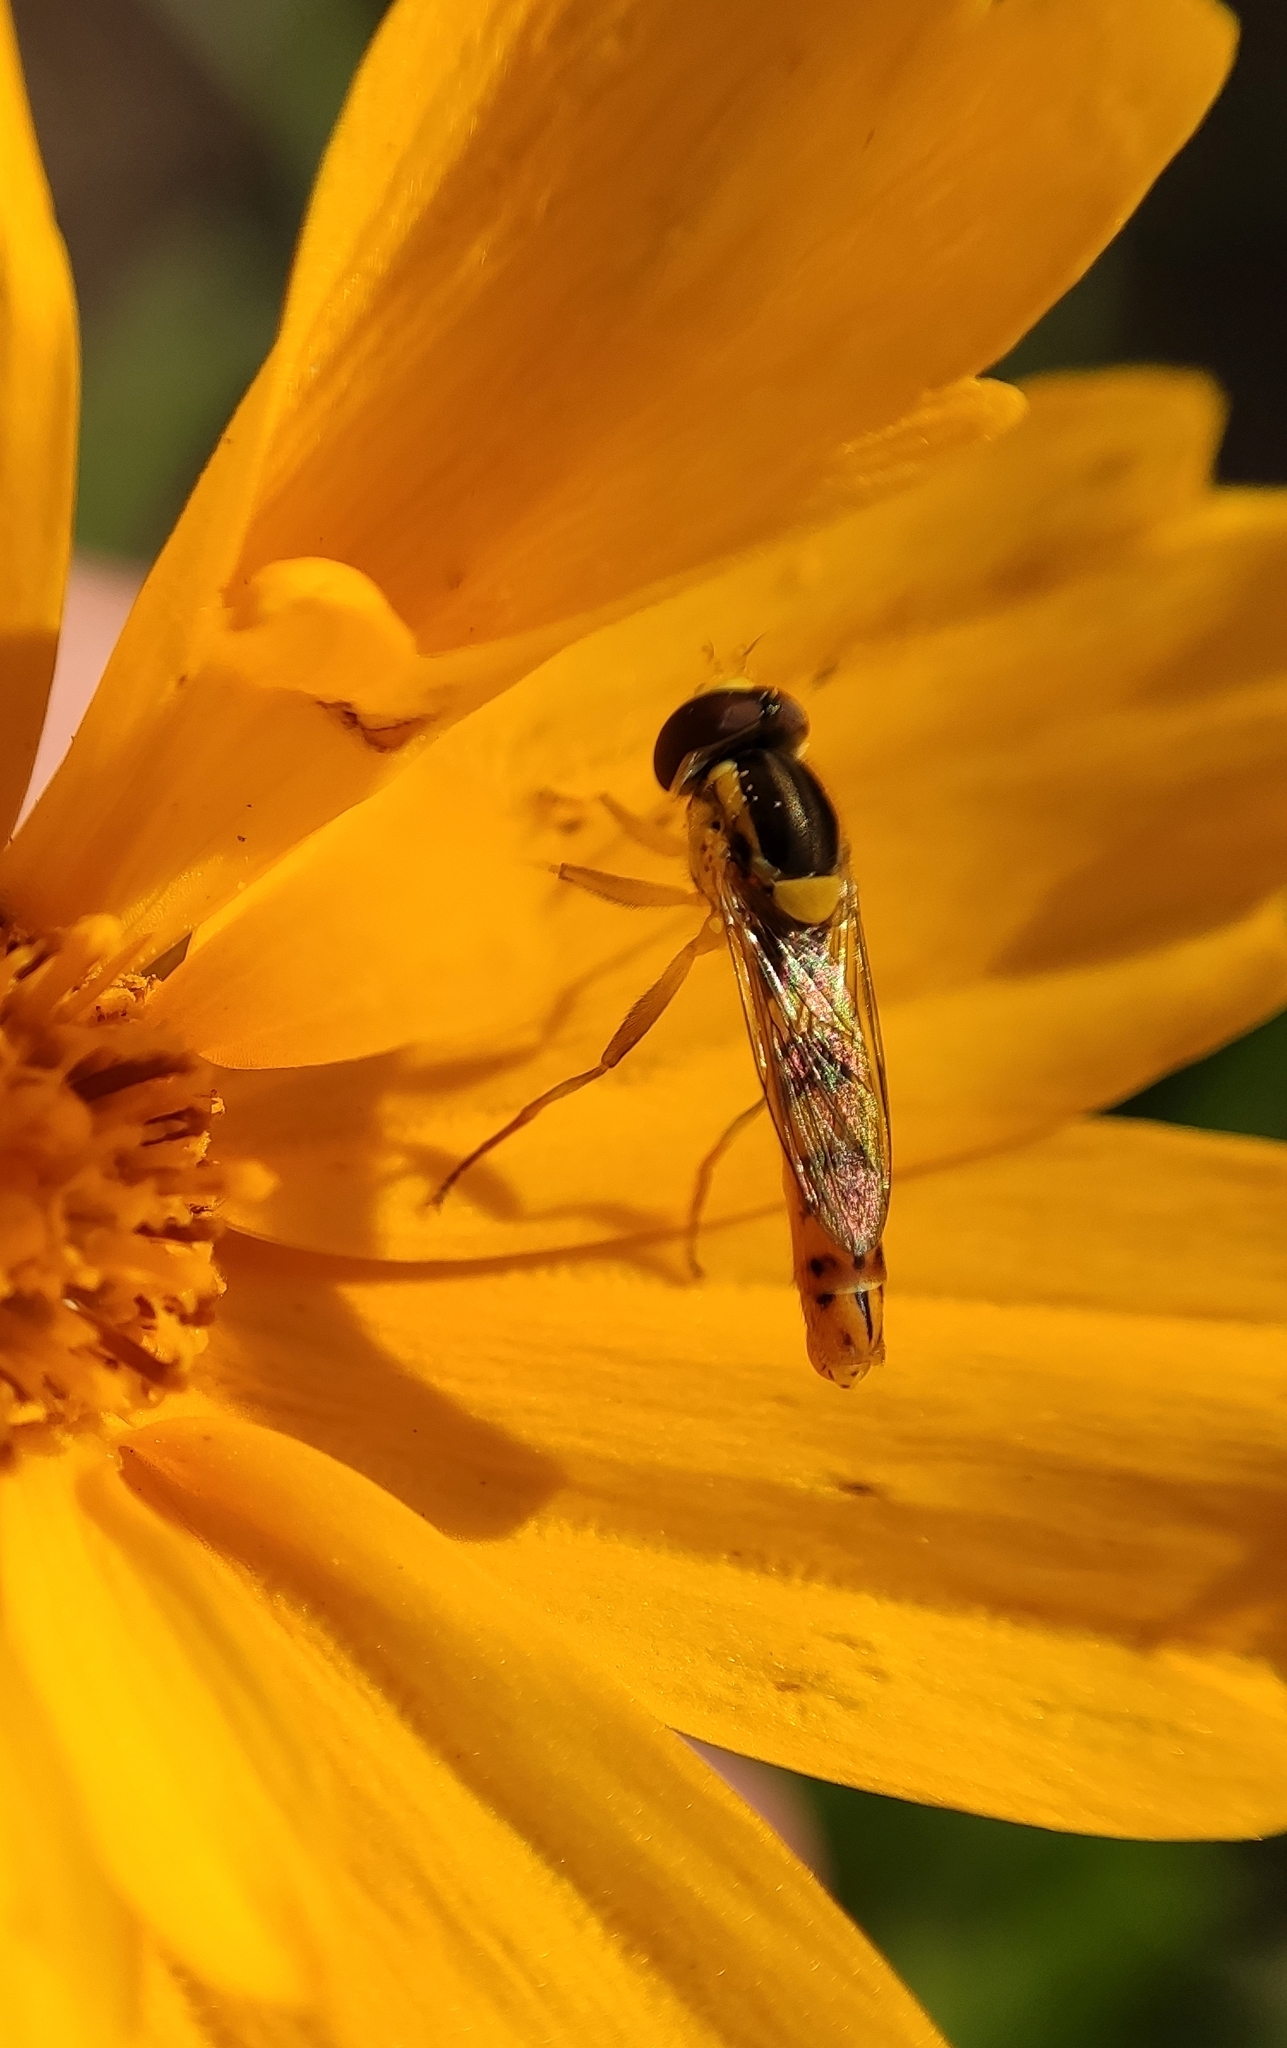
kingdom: Animalia
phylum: Arthropoda
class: Insecta
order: Diptera
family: Syrphidae
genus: Sphaerophoria
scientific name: Sphaerophoria scripta
